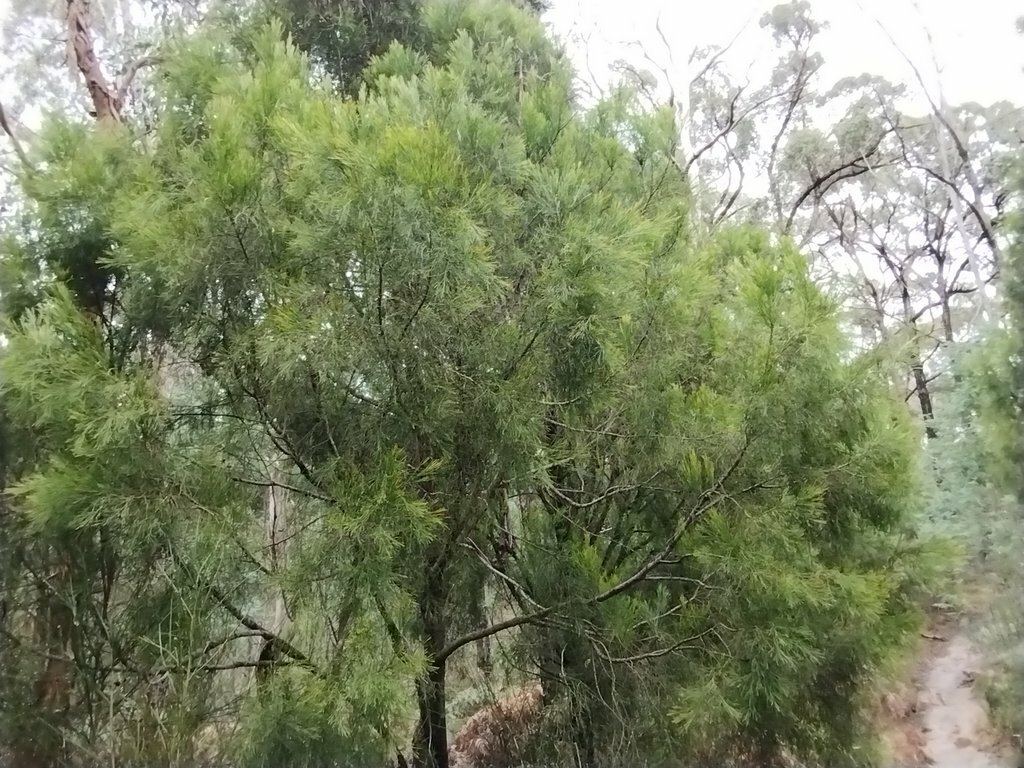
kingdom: Plantae
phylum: Tracheophyta
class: Magnoliopsida
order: Santalales
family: Santalaceae
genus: Exocarpos
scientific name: Exocarpos cupressiformis
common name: Cherry ballart
